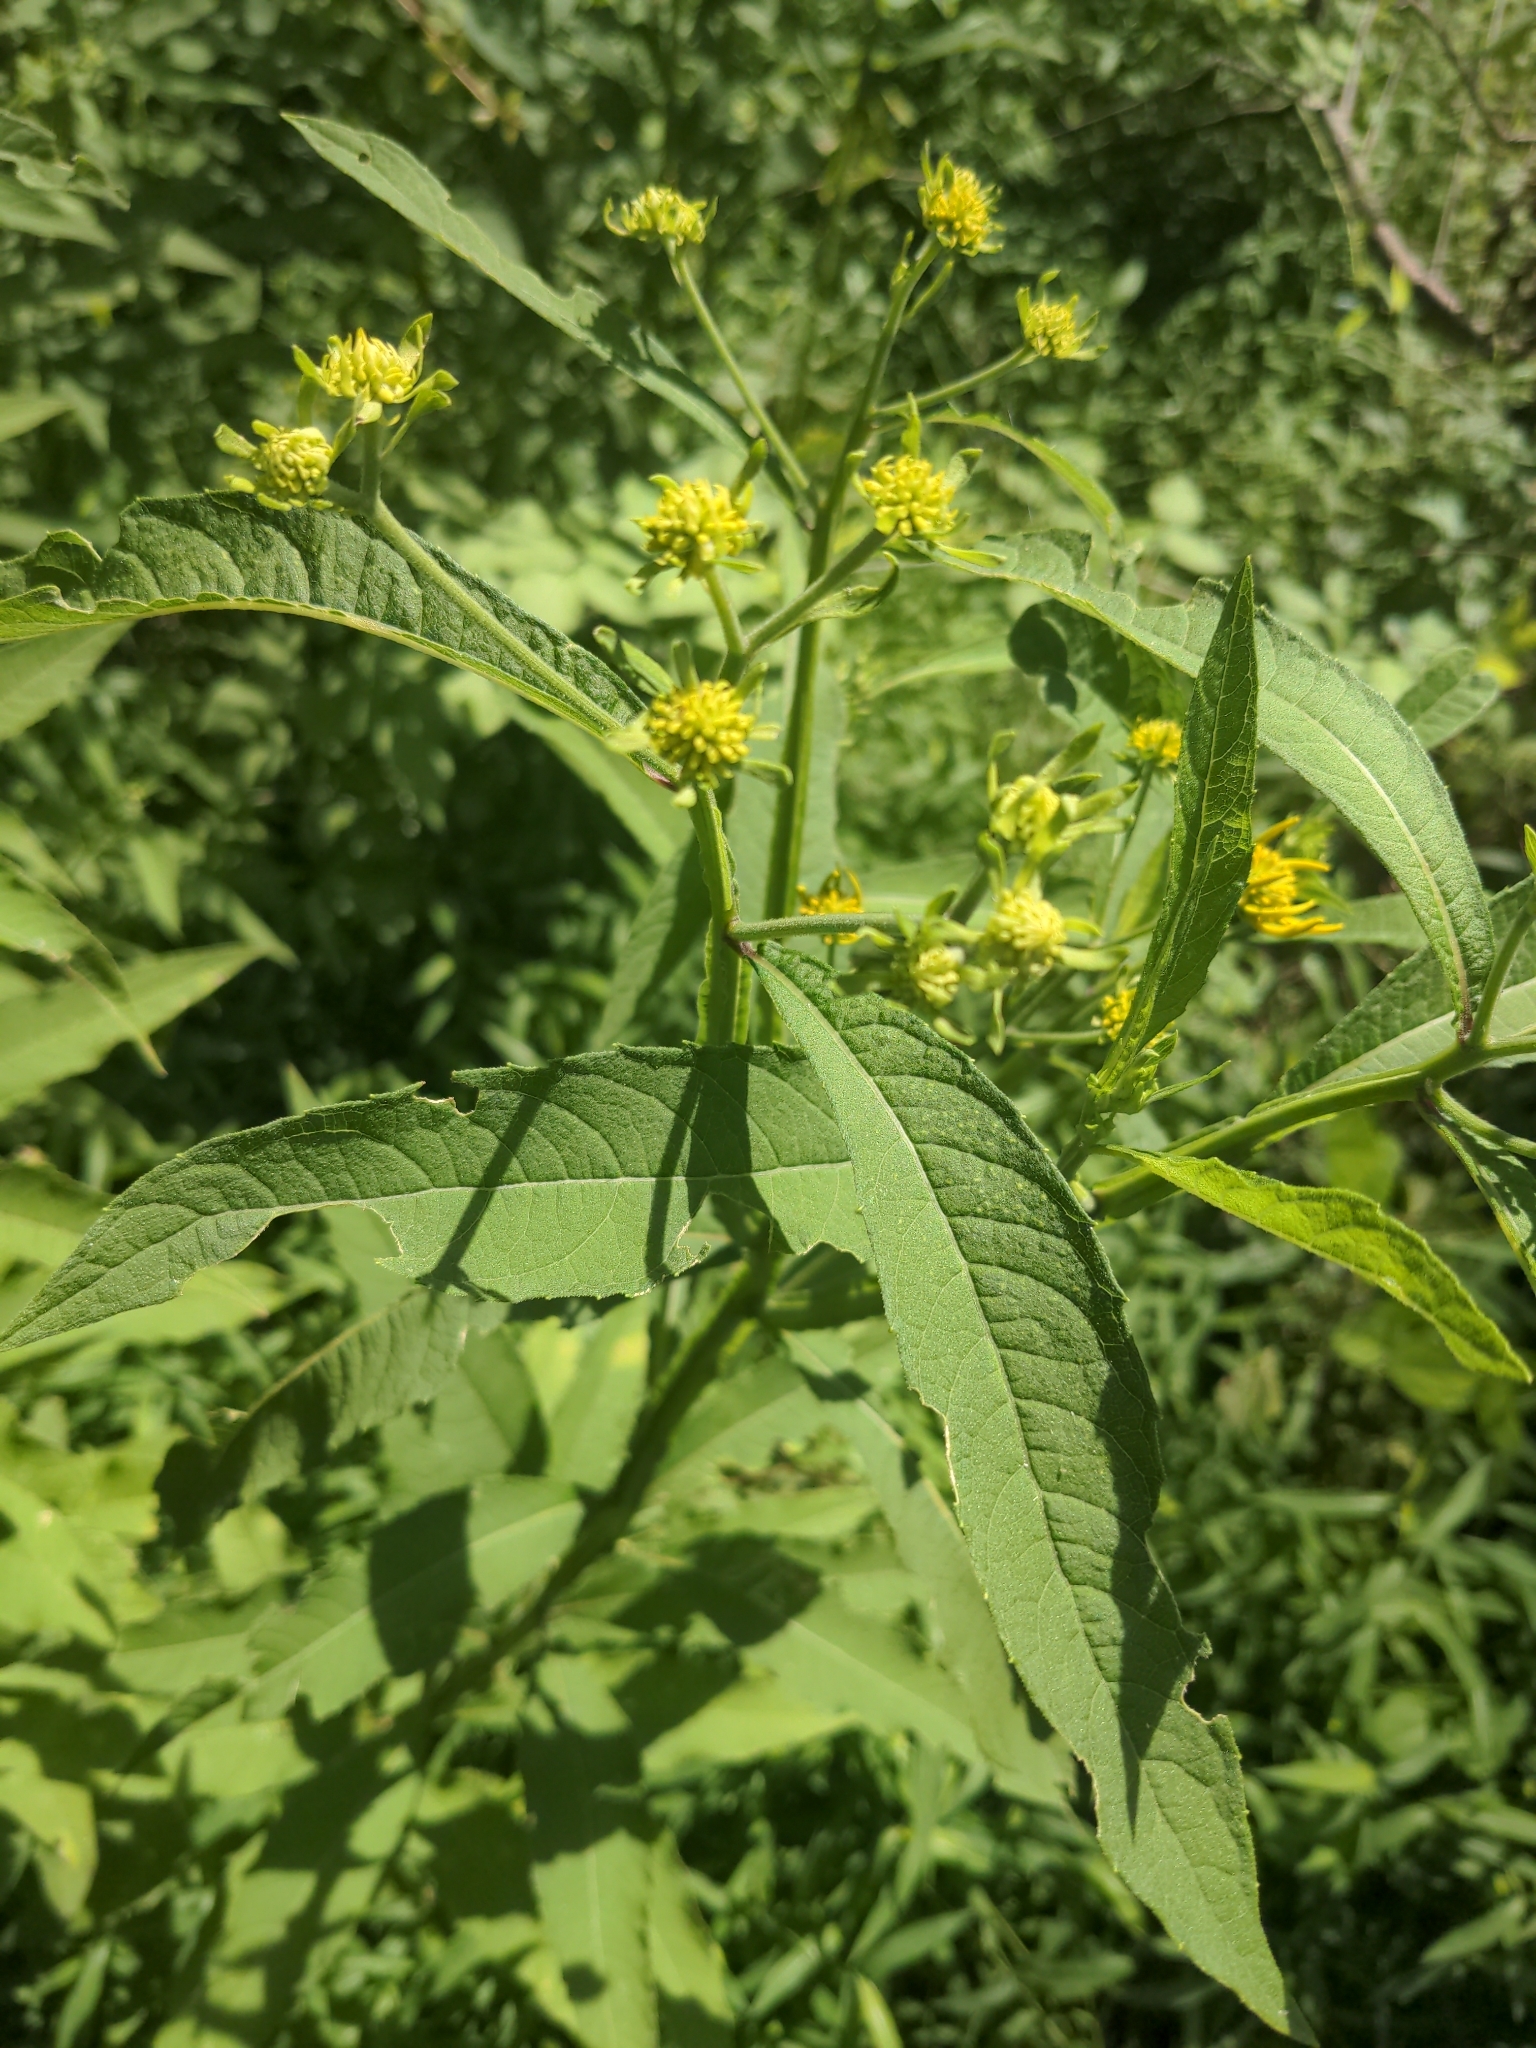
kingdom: Plantae
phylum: Tracheophyta
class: Magnoliopsida
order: Asterales
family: Asteraceae
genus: Verbesina
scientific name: Verbesina alternifolia
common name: Wingstem
